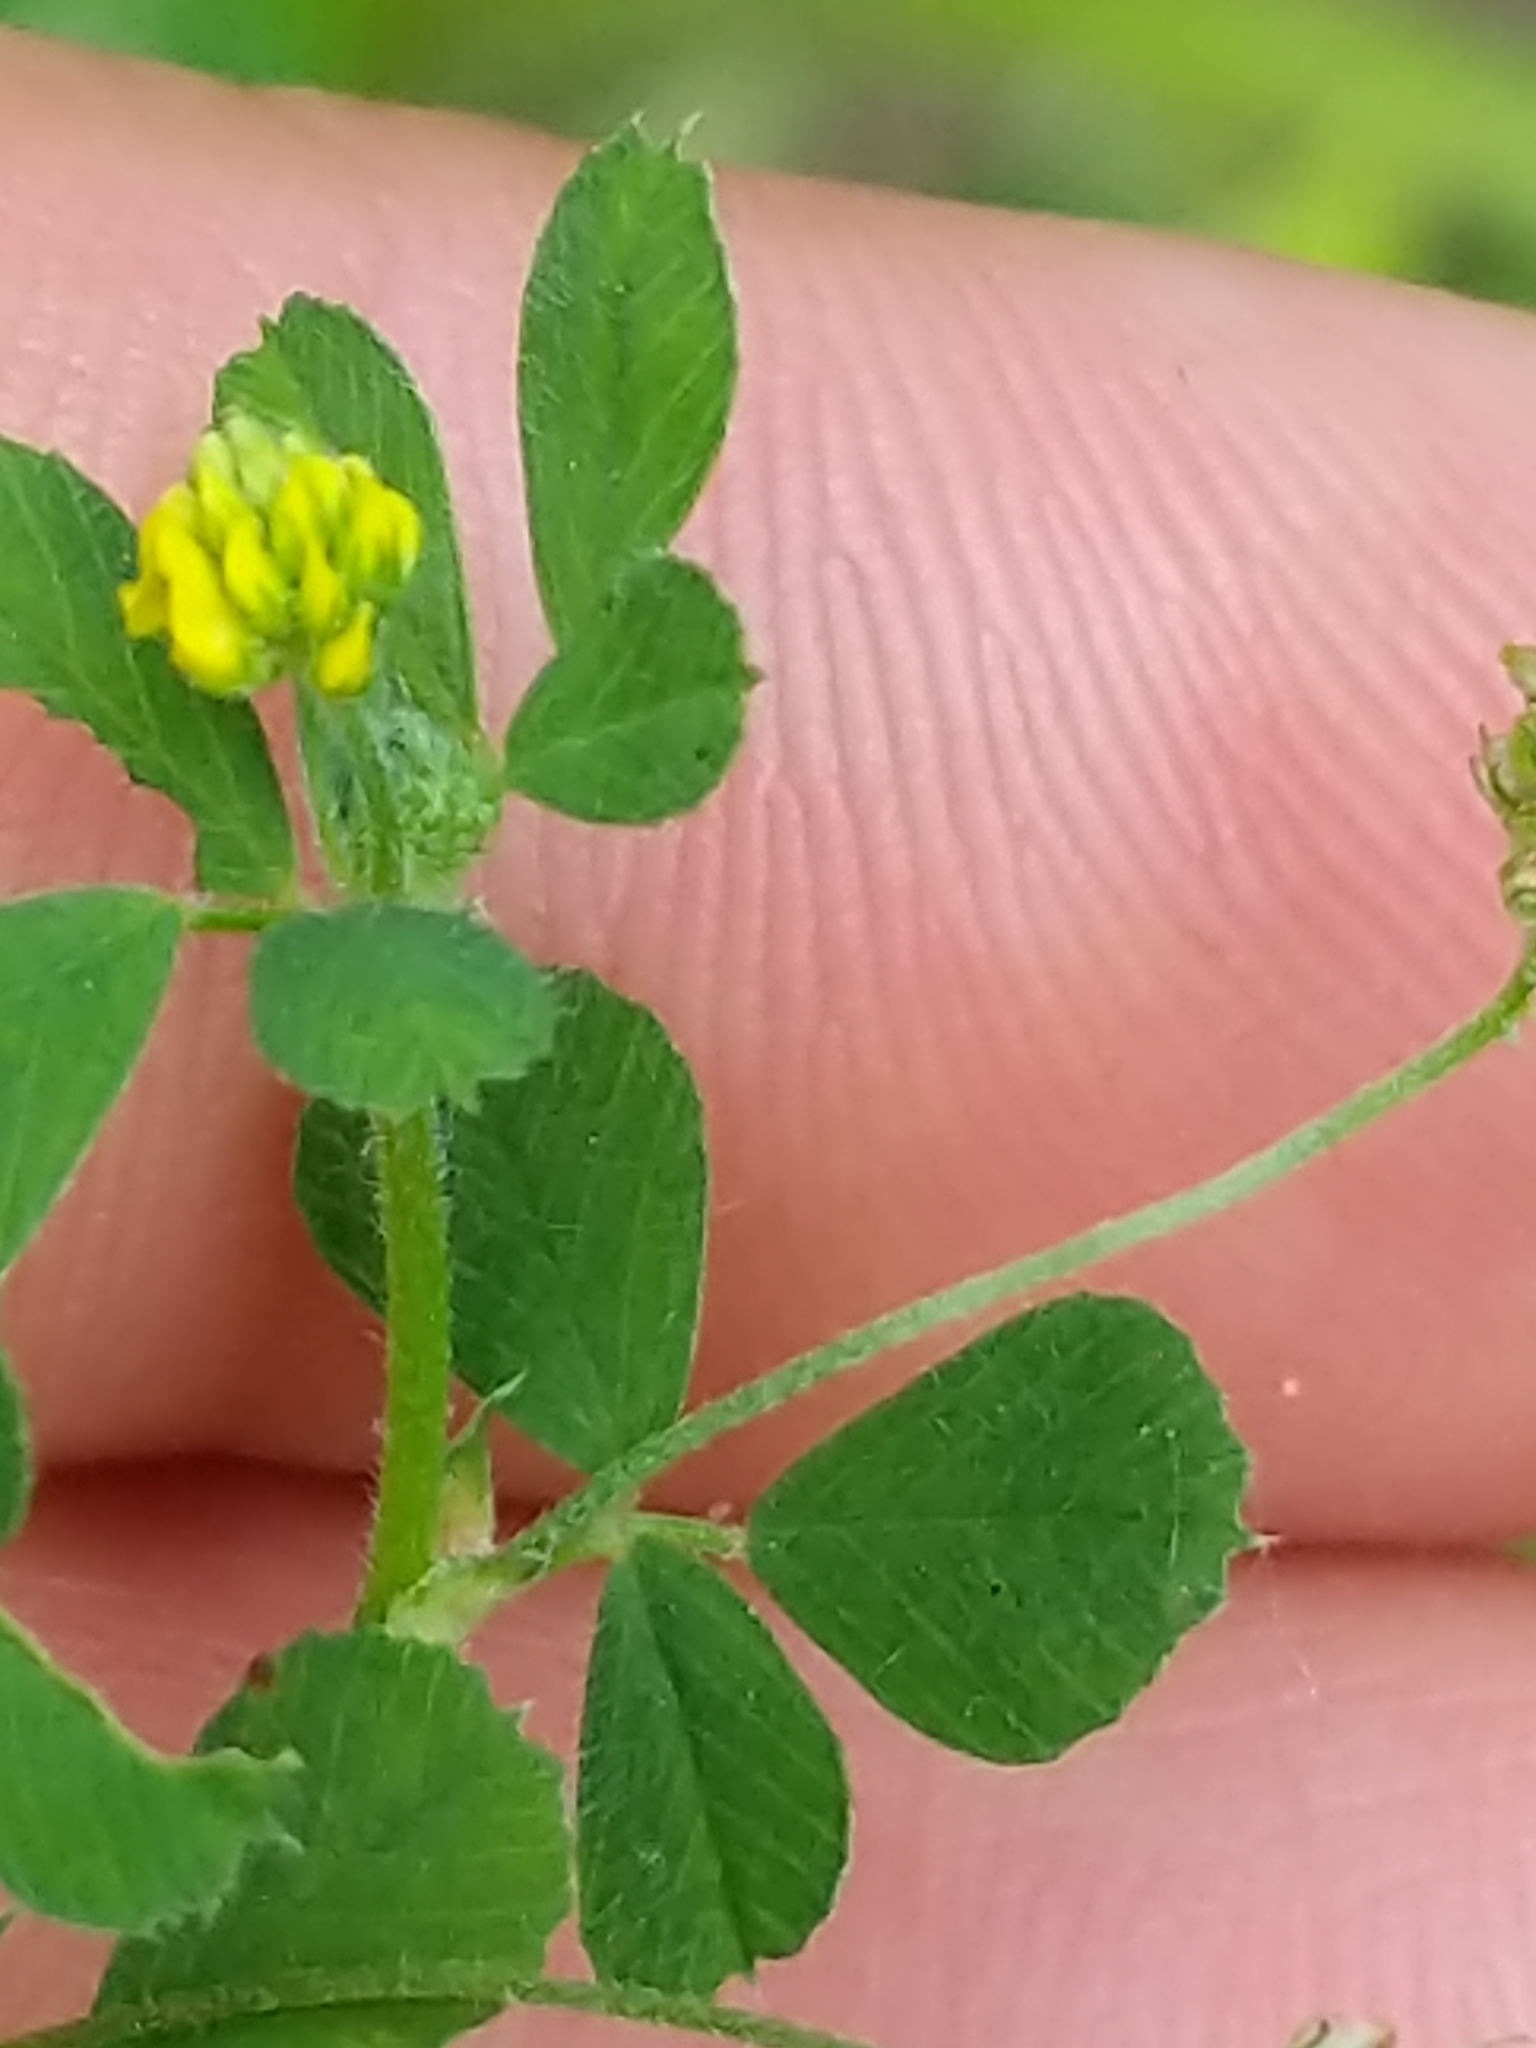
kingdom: Plantae
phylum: Tracheophyta
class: Magnoliopsida
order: Fabales
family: Fabaceae
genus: Medicago
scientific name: Medicago lupulina
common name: Black medick
